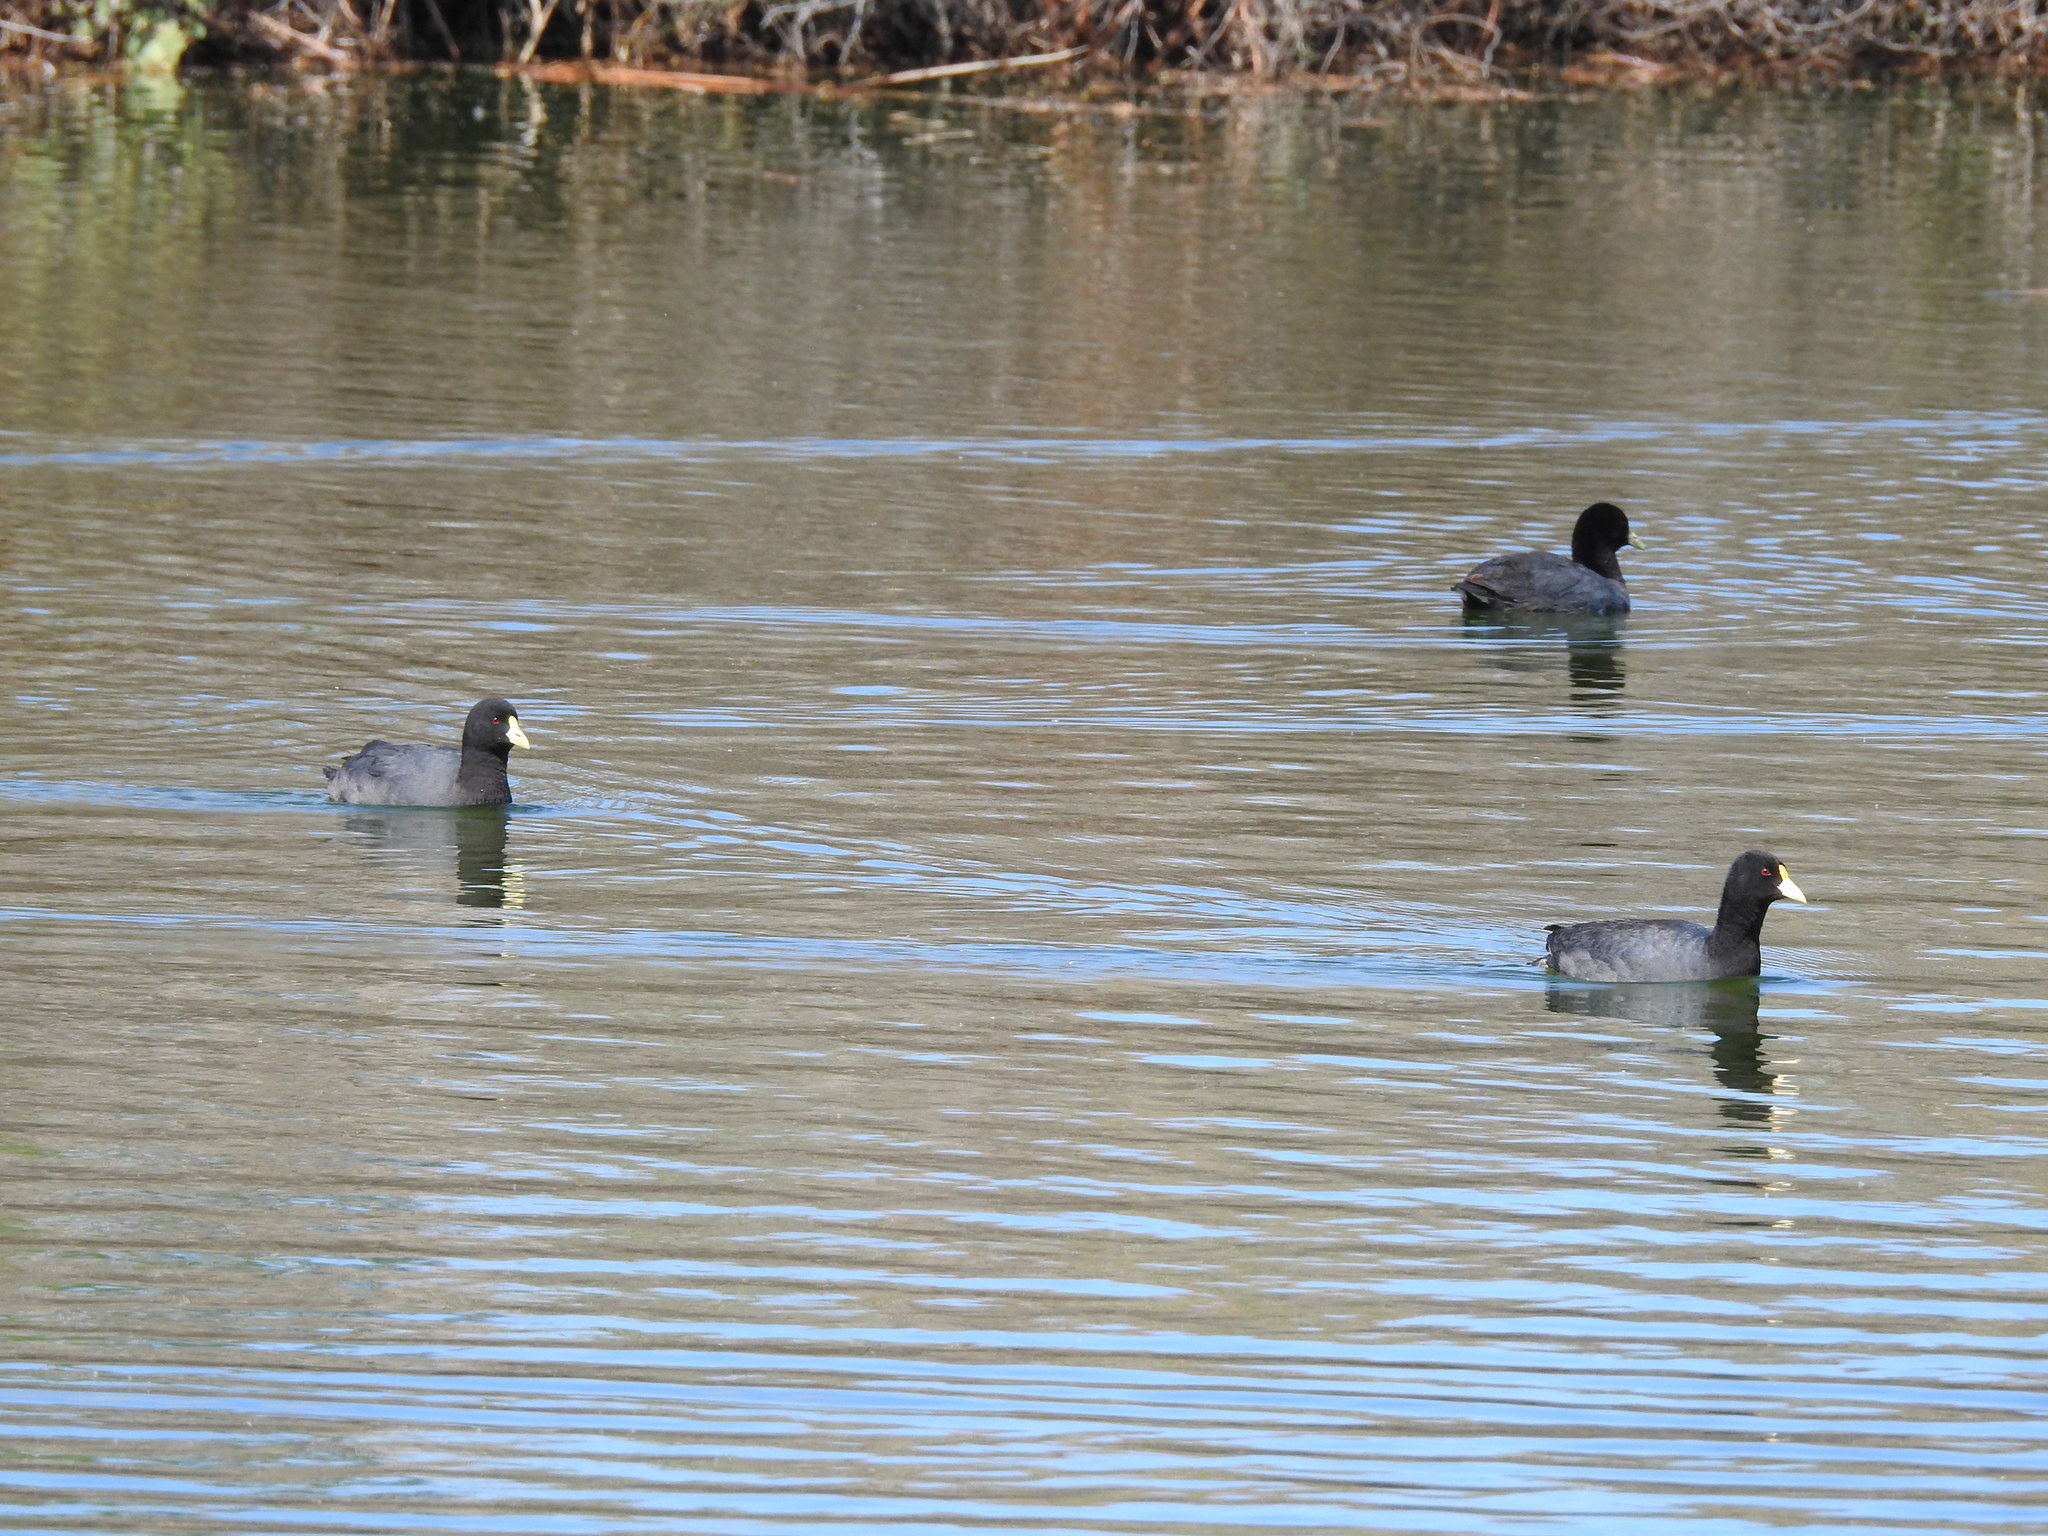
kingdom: Animalia
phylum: Chordata
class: Aves
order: Gruiformes
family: Rallidae
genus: Fulica
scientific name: Fulica leucoptera
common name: White-winged coot
